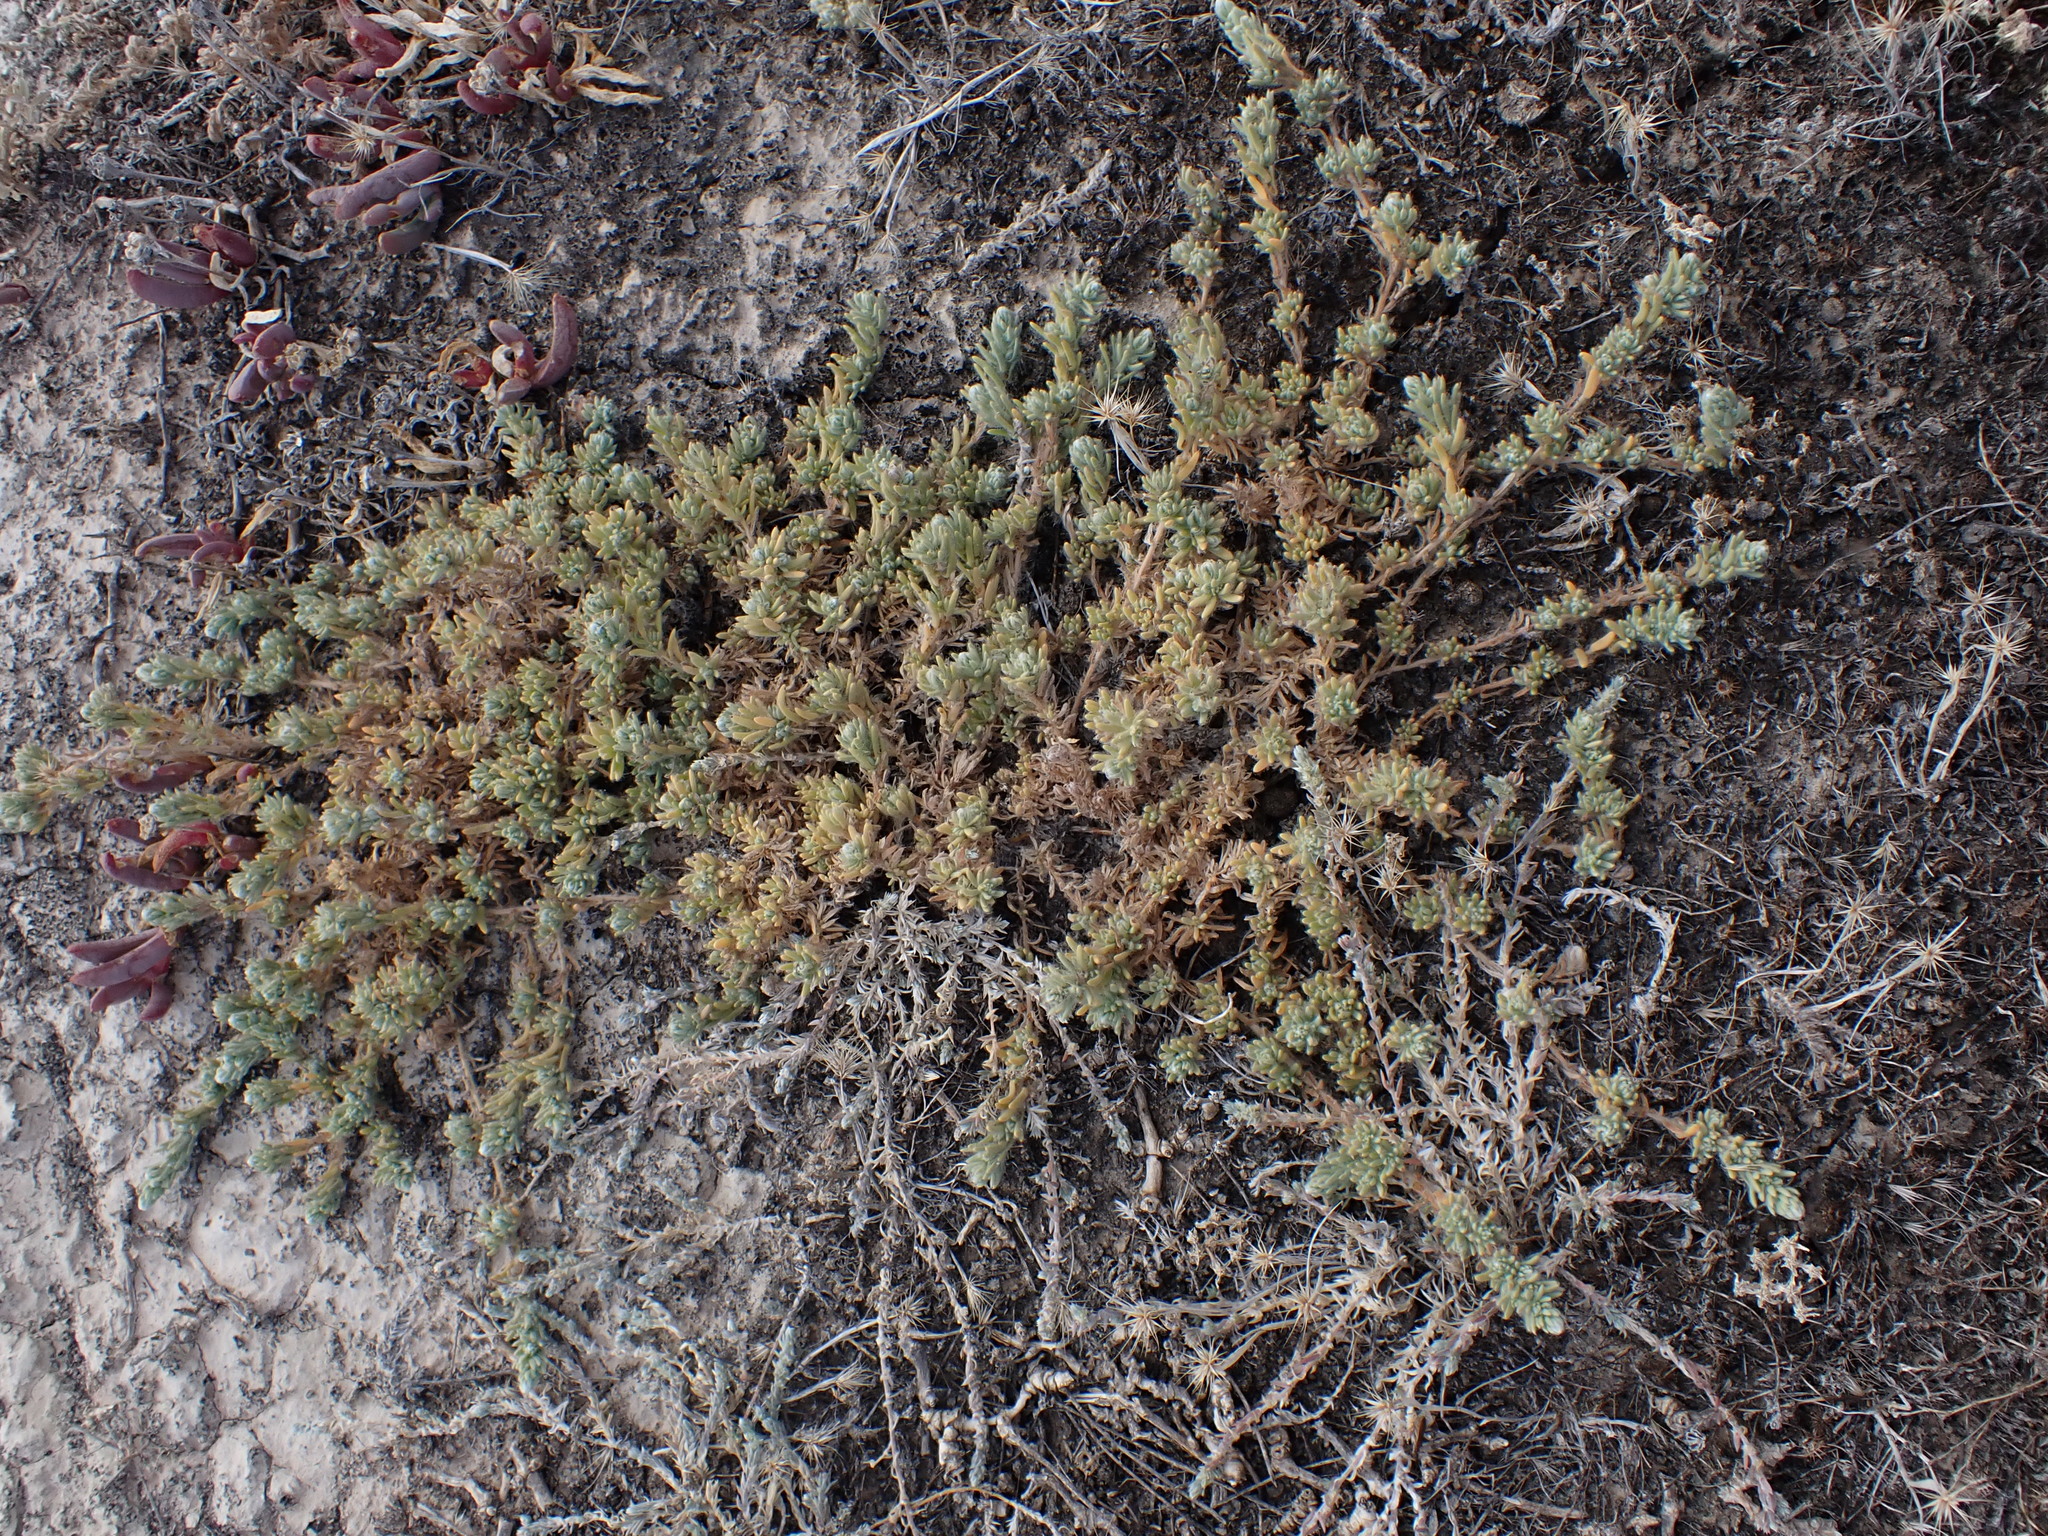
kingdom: Plantae
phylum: Tracheophyta
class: Magnoliopsida
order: Caryophyllales
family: Amaranthaceae
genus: Sclerolaena
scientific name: Sclerolaena brachyptera
